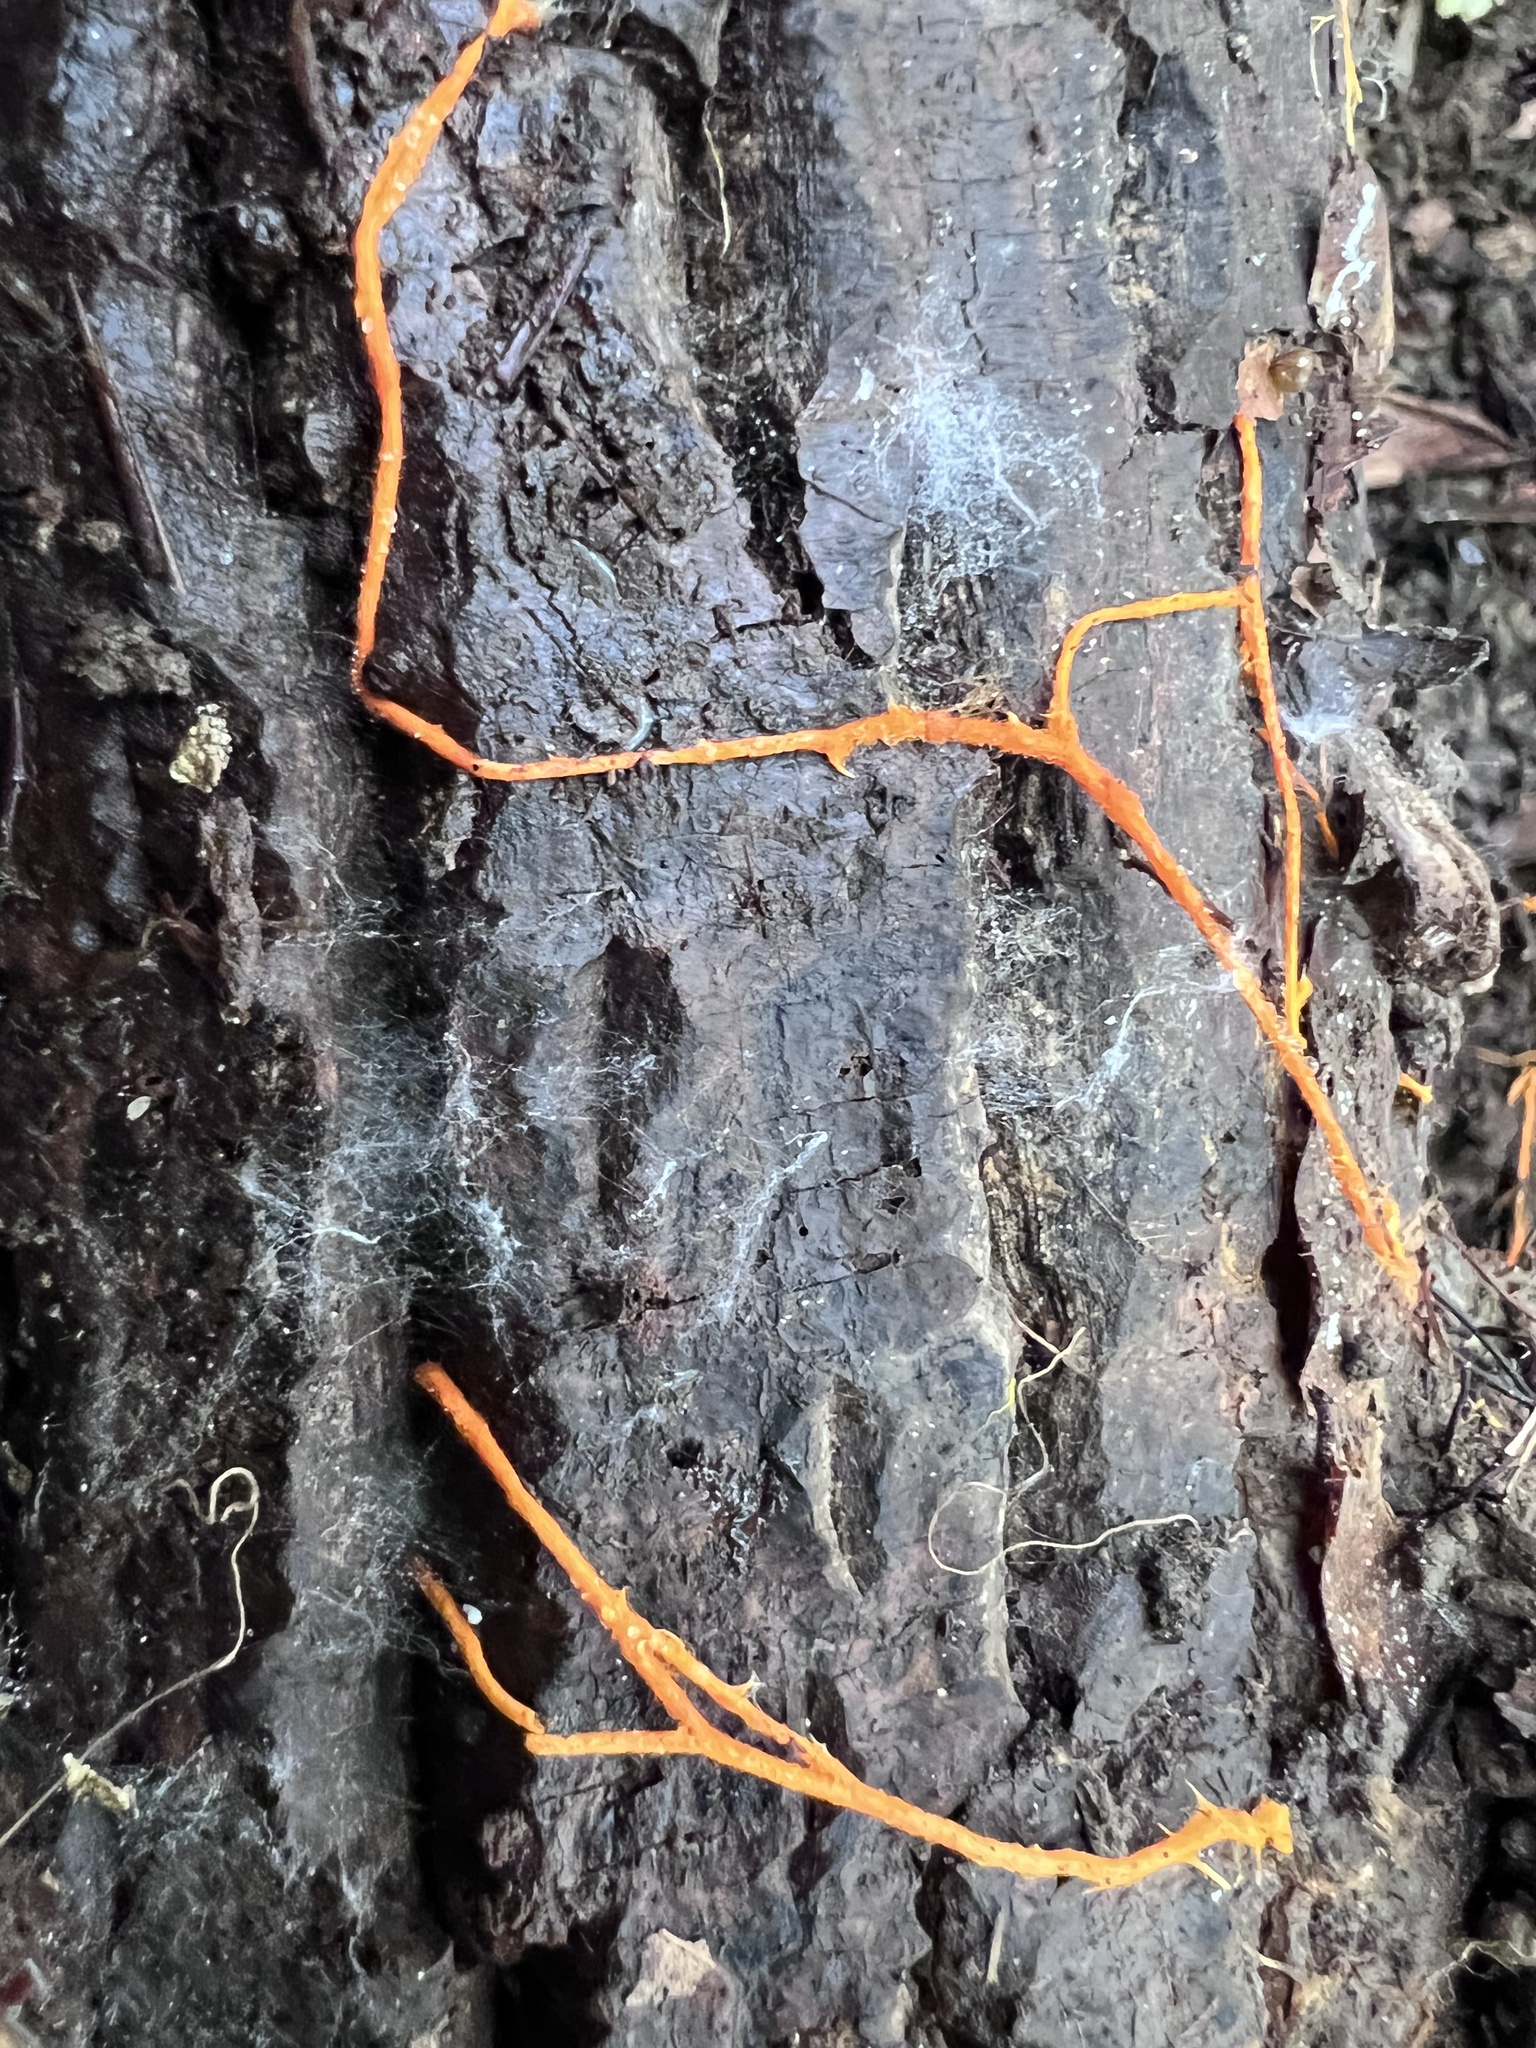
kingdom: Fungi
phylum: Basidiomycota
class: Agaricomycetes
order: Polyporales
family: Meruliaceae
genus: Hydnophlebia
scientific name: Hydnophlebia chrysorhiza
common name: Spreading yellow tooth
